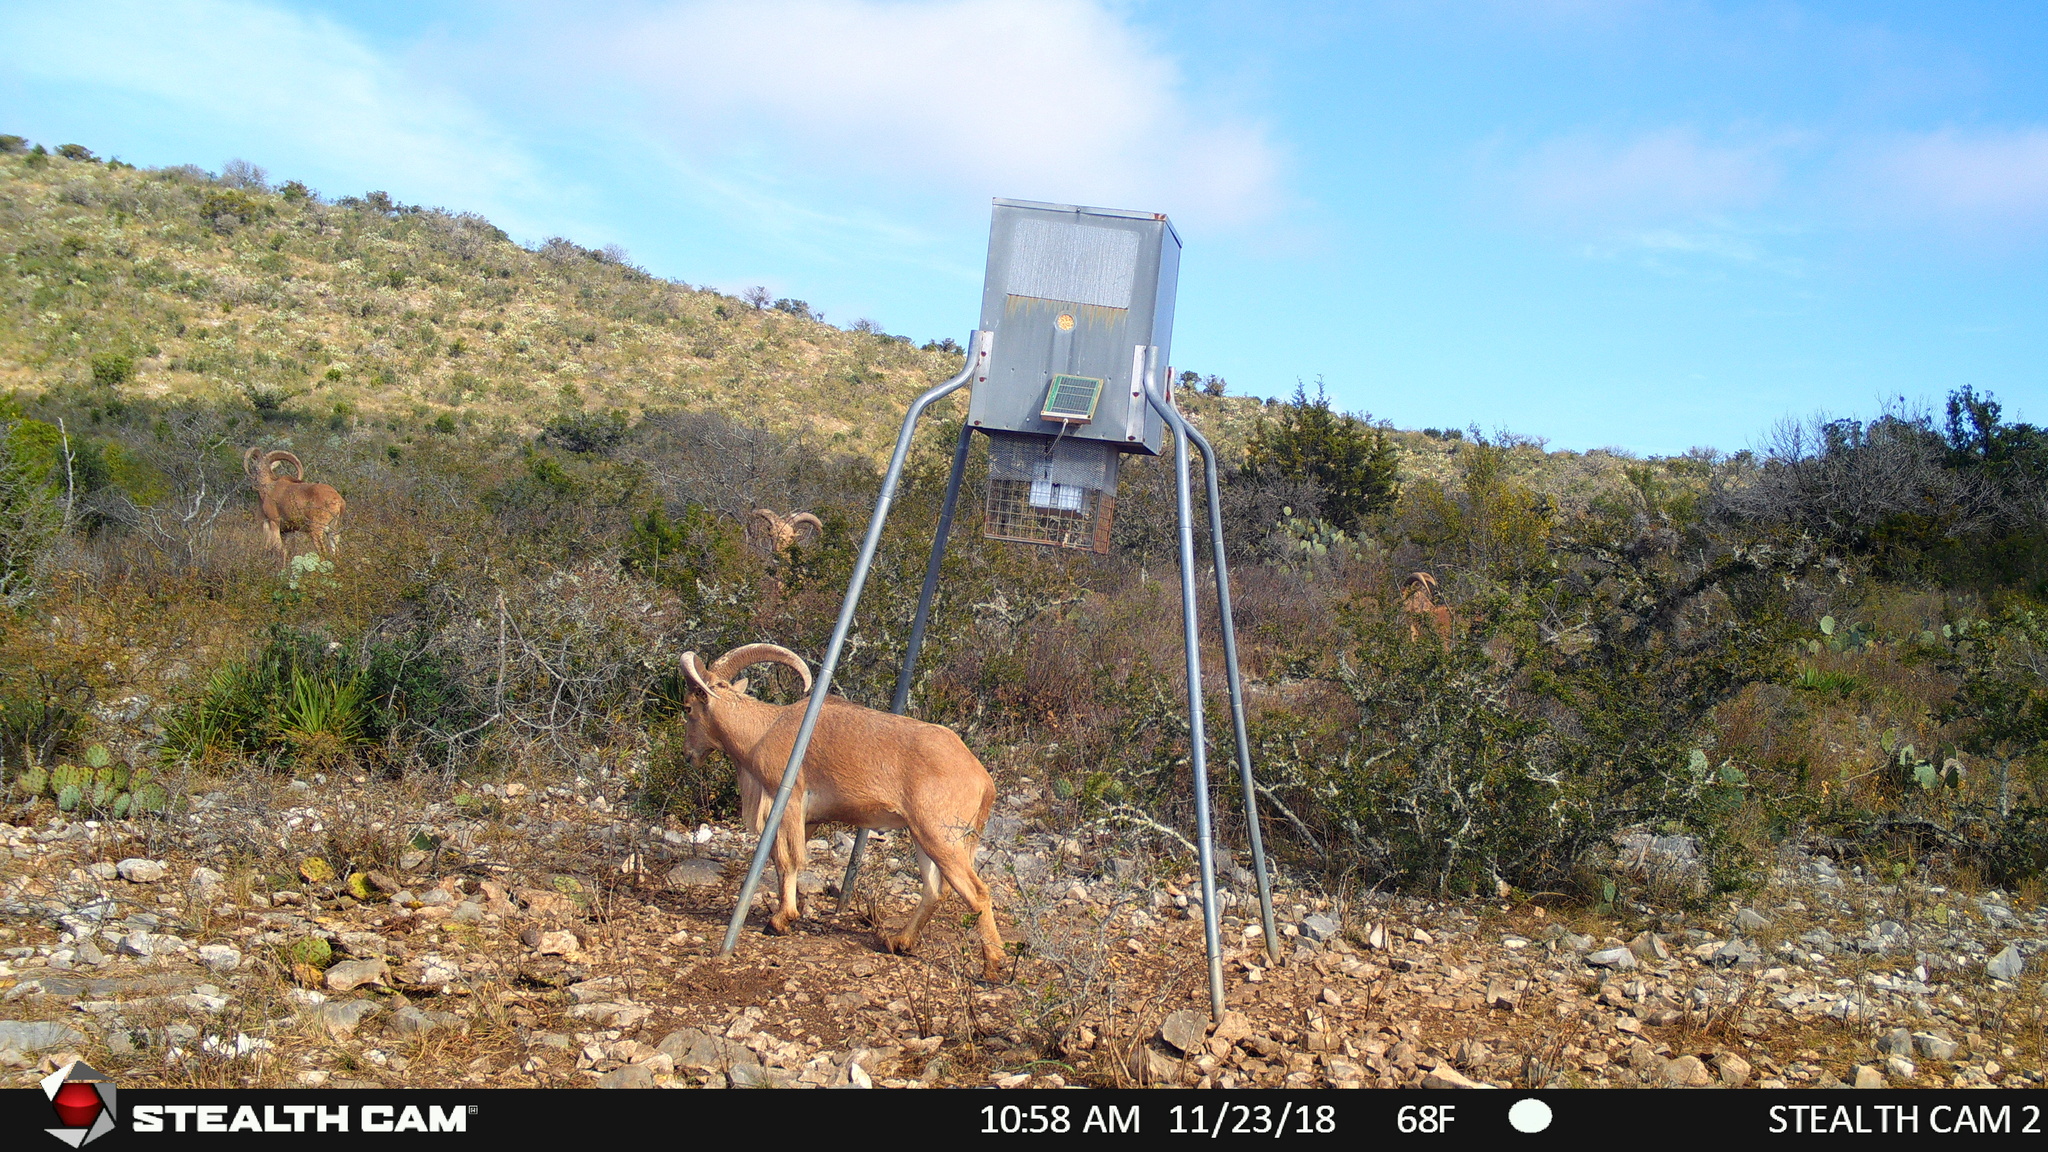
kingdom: Animalia
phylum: Chordata
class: Mammalia
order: Artiodactyla
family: Bovidae
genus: Ammotragus
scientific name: Ammotragus lervia
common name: Barbary sheep
